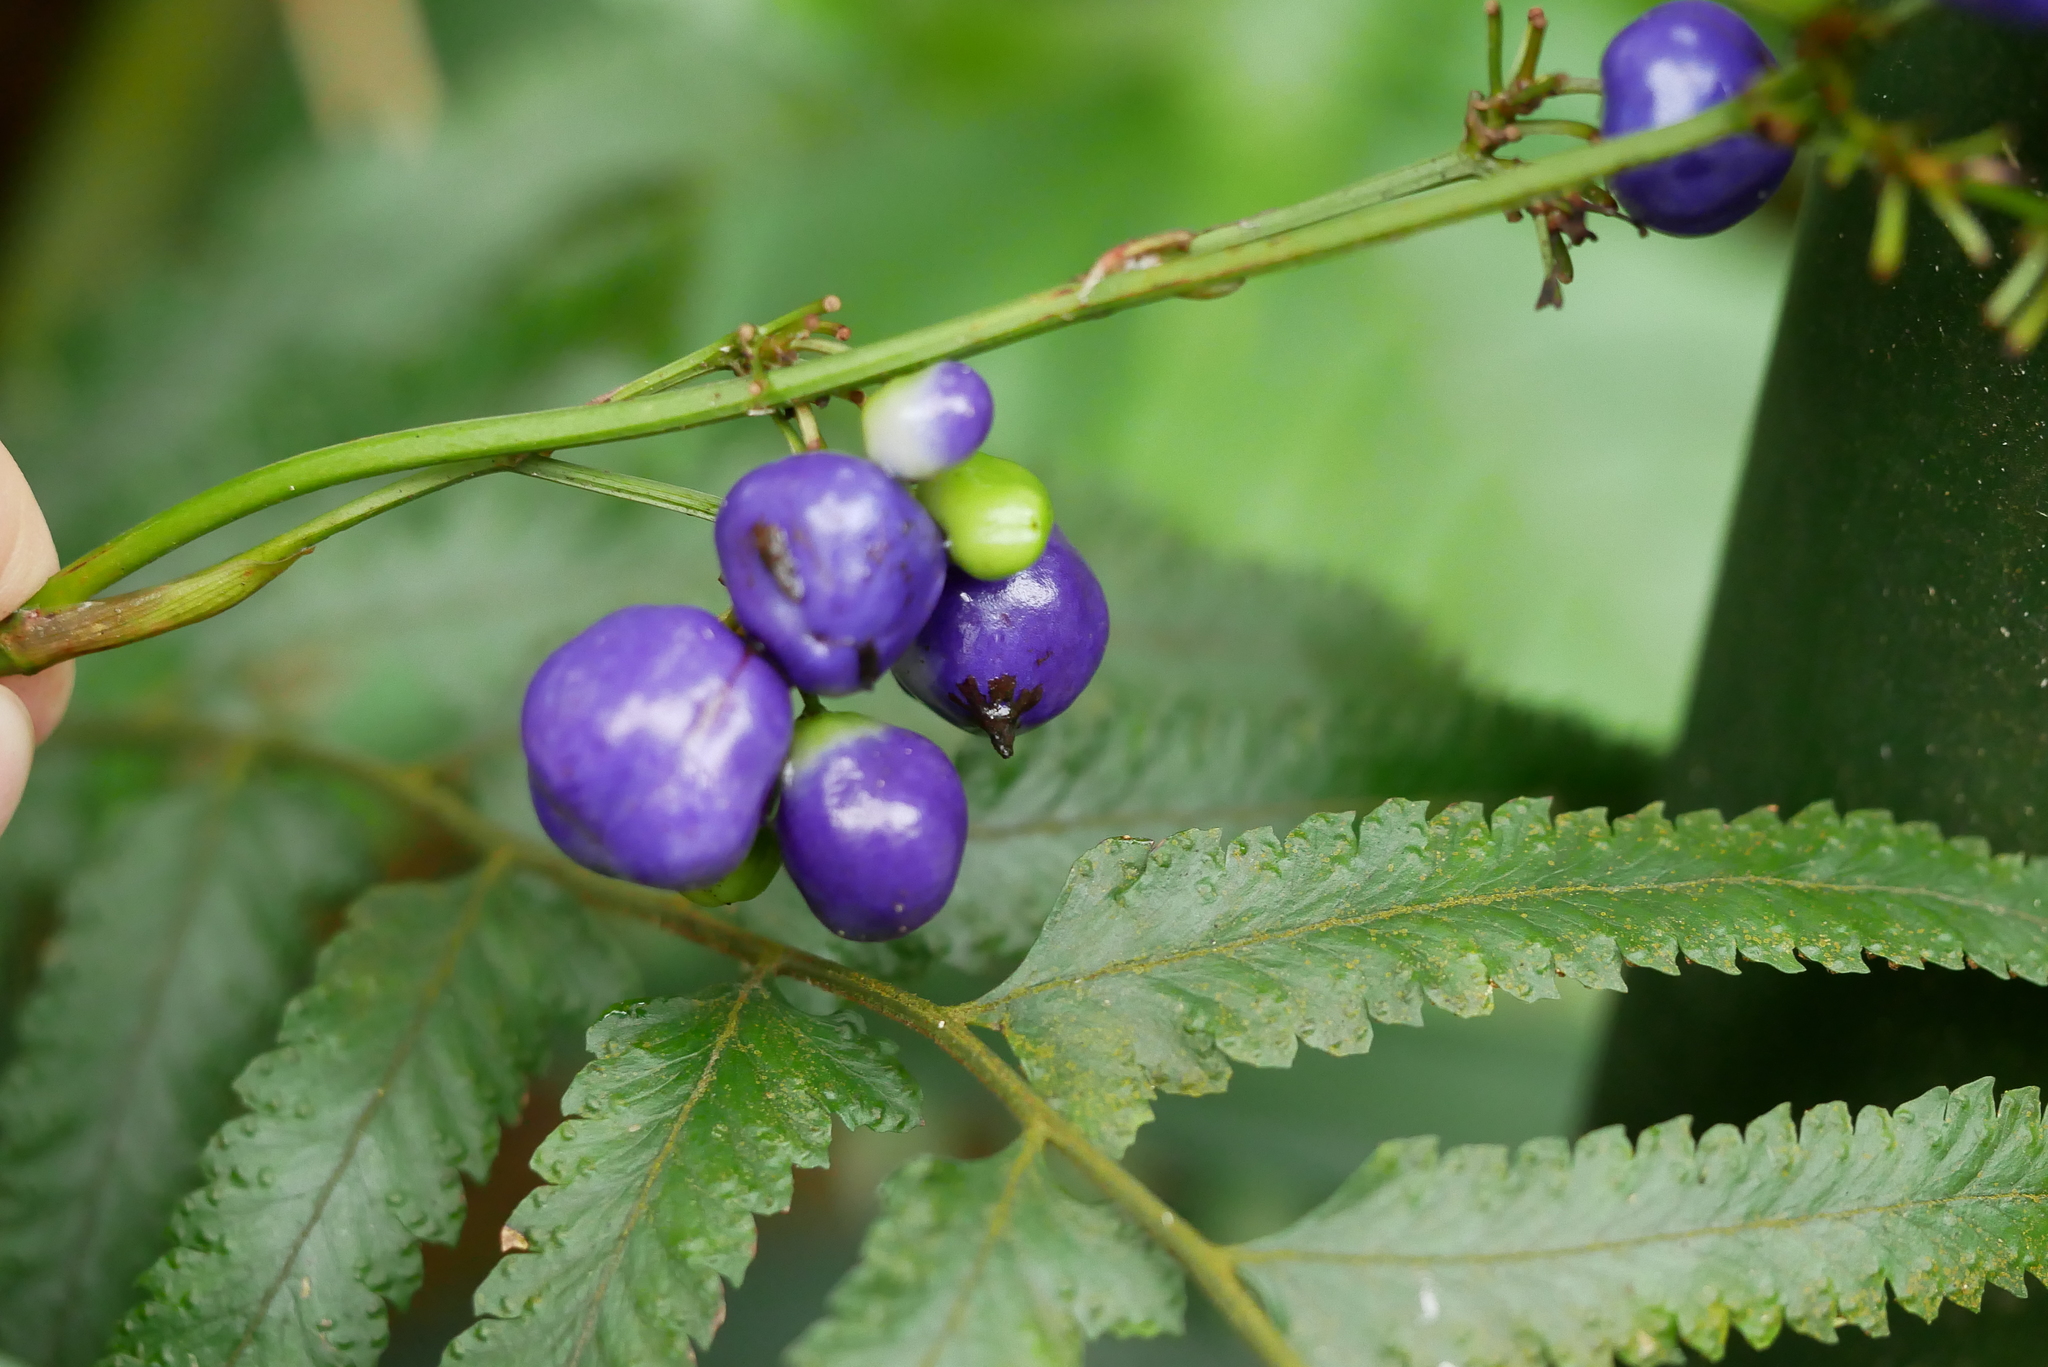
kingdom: Plantae
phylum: Tracheophyta
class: Liliopsida
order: Asparagales
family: Asphodelaceae
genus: Dianella
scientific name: Dianella ensifolia
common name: New zealand lilyplant
